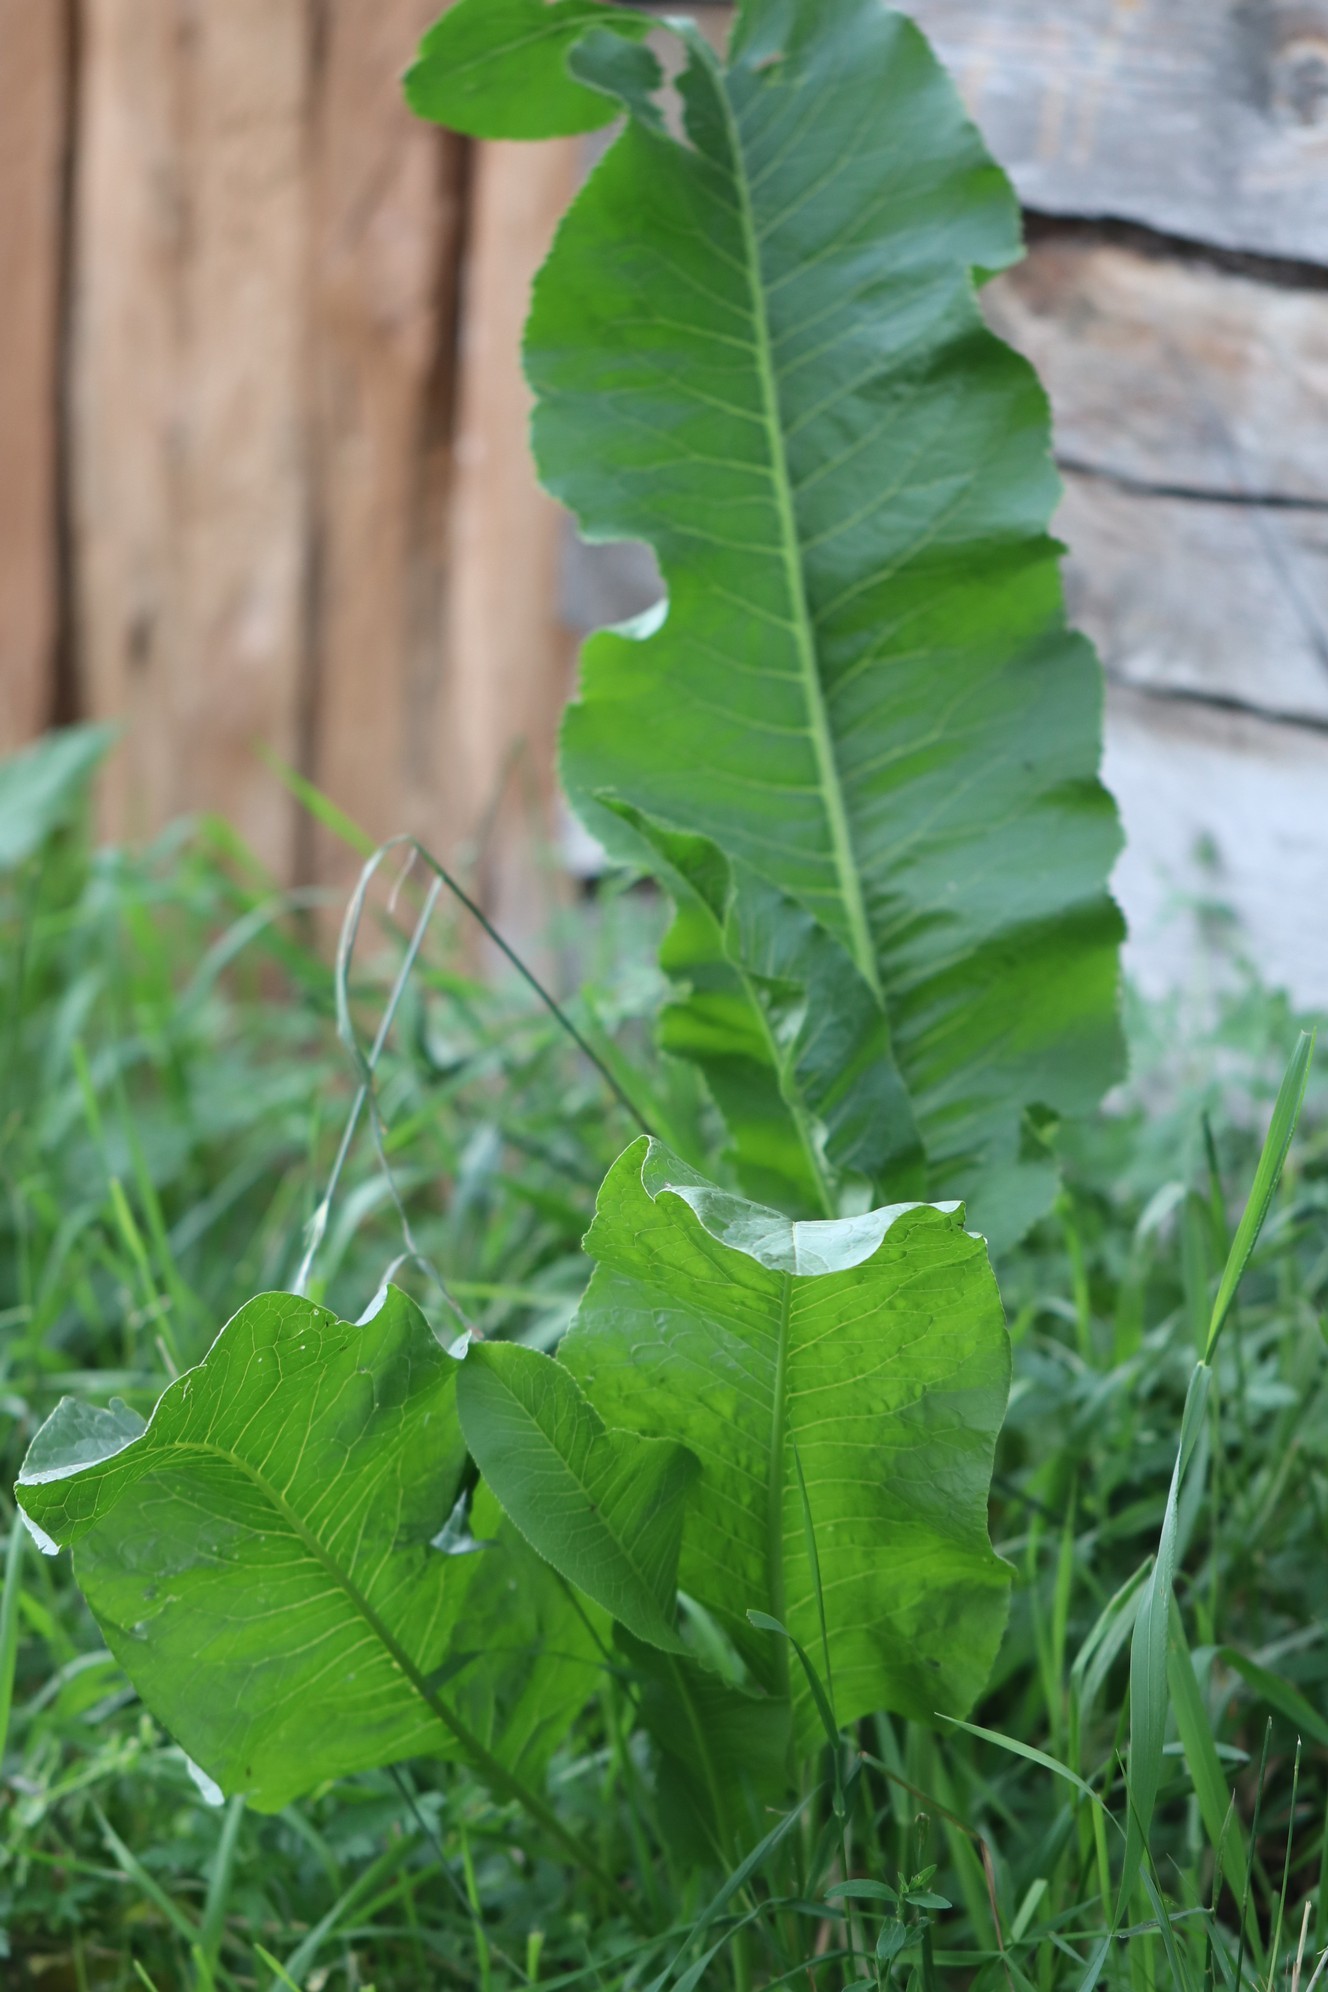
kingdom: Plantae
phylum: Tracheophyta
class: Magnoliopsida
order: Brassicales
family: Brassicaceae
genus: Armoracia
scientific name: Armoracia rusticana
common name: Horseradish
